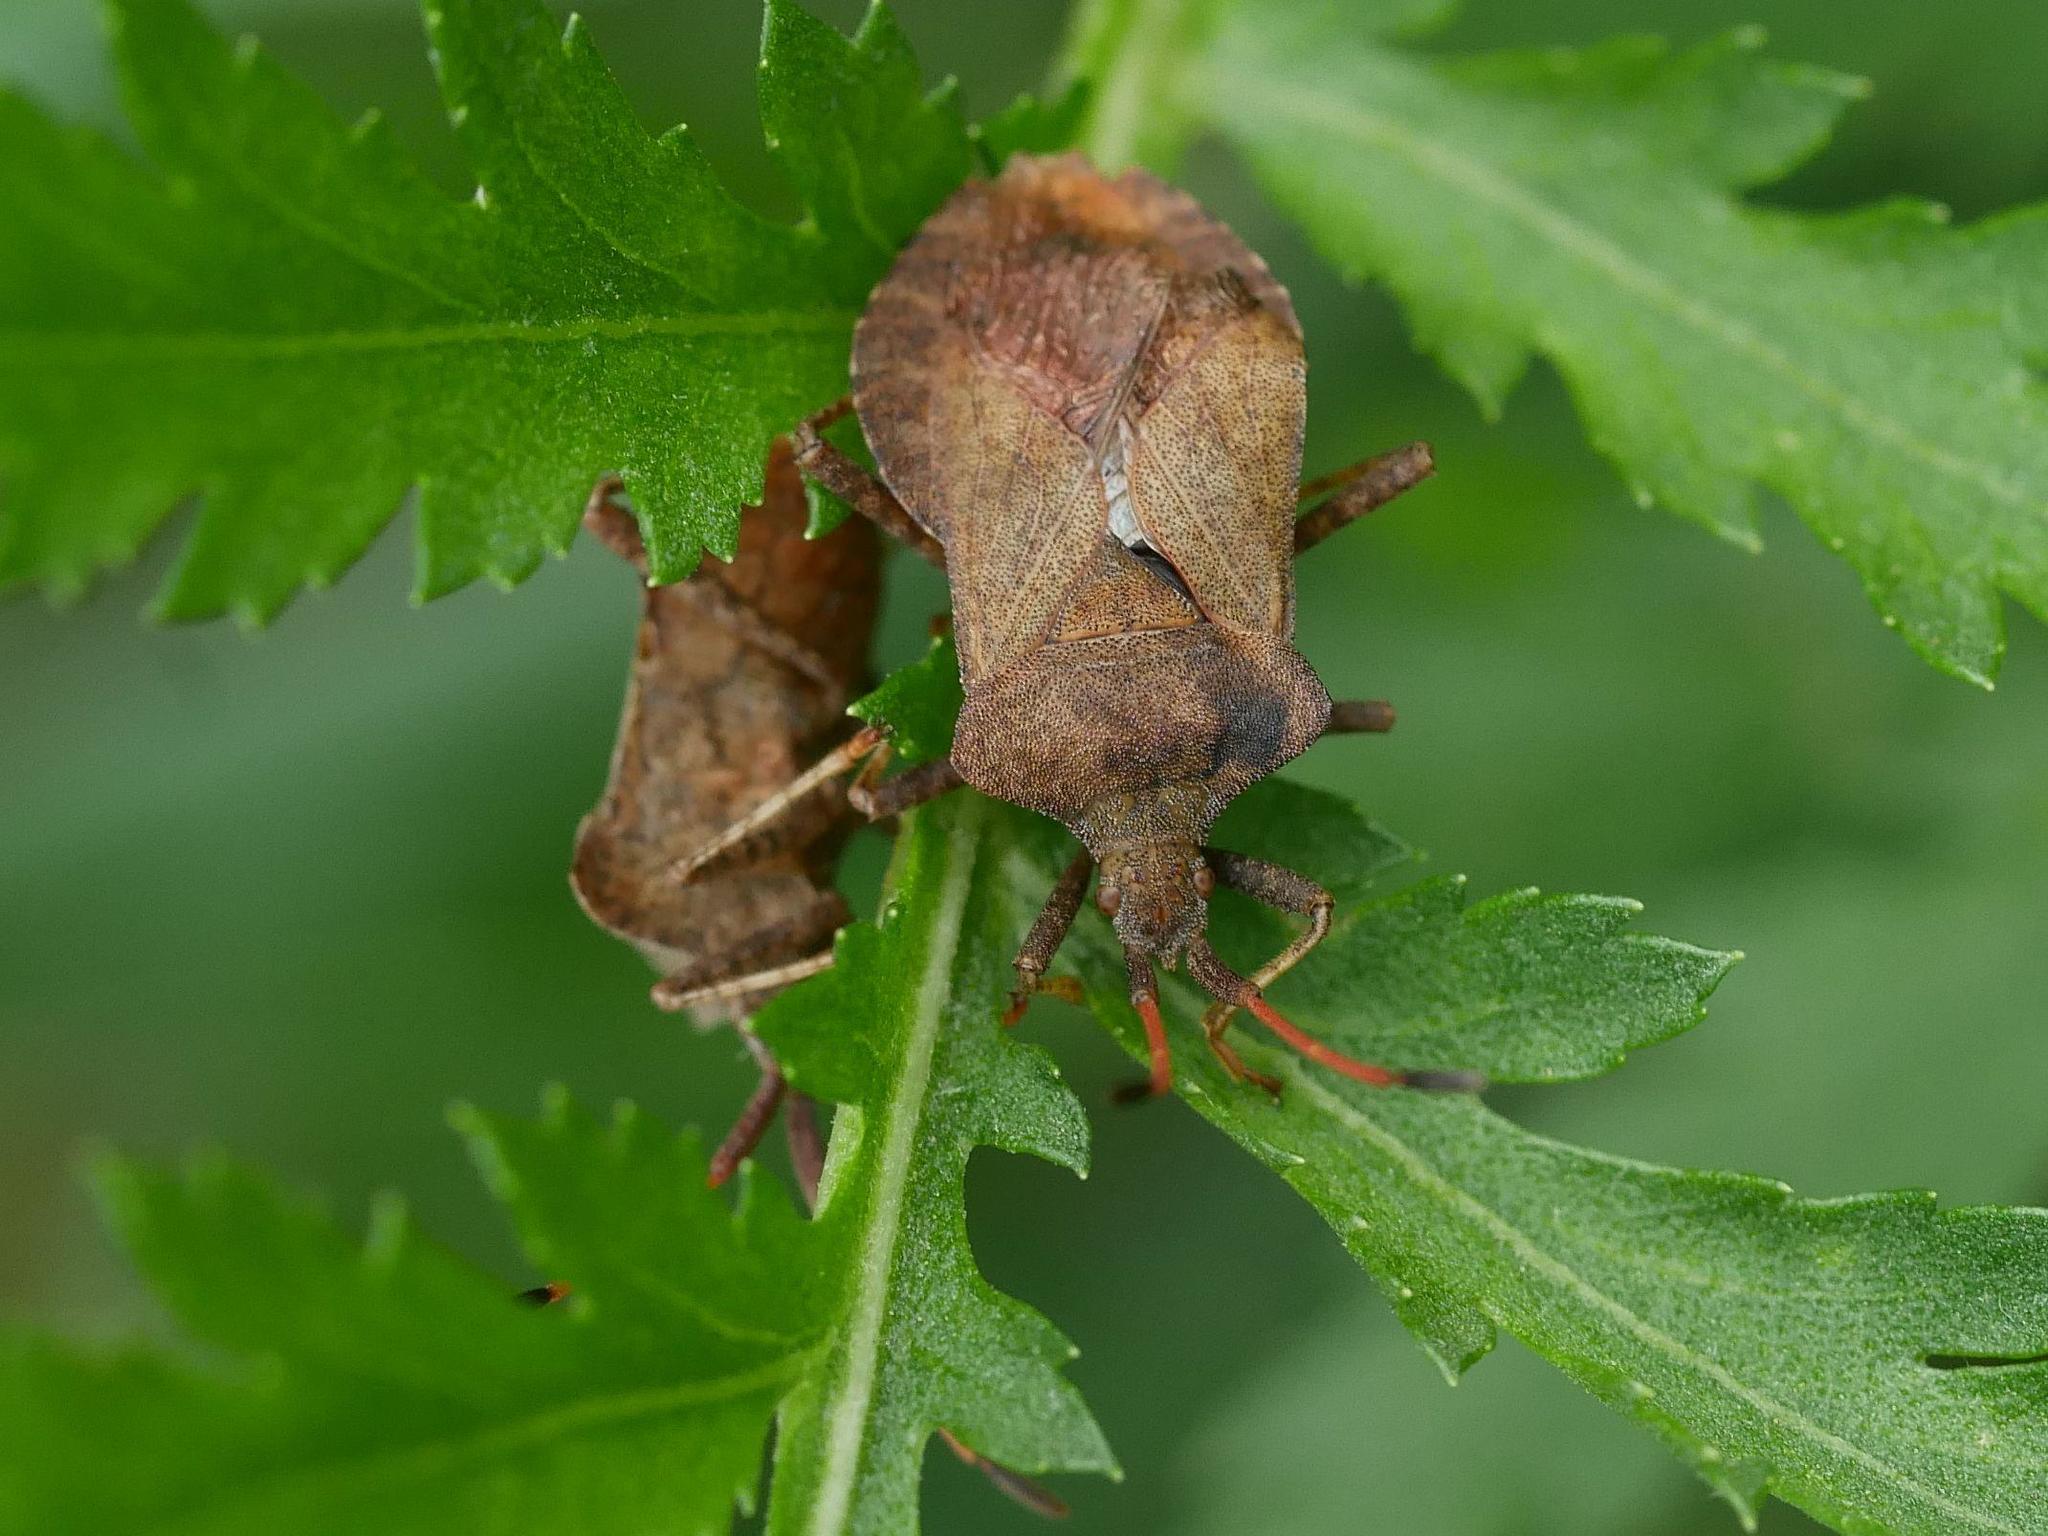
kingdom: Animalia
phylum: Arthropoda
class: Insecta
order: Hemiptera
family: Coreidae
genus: Coreus
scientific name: Coreus marginatus
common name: Dock bug
